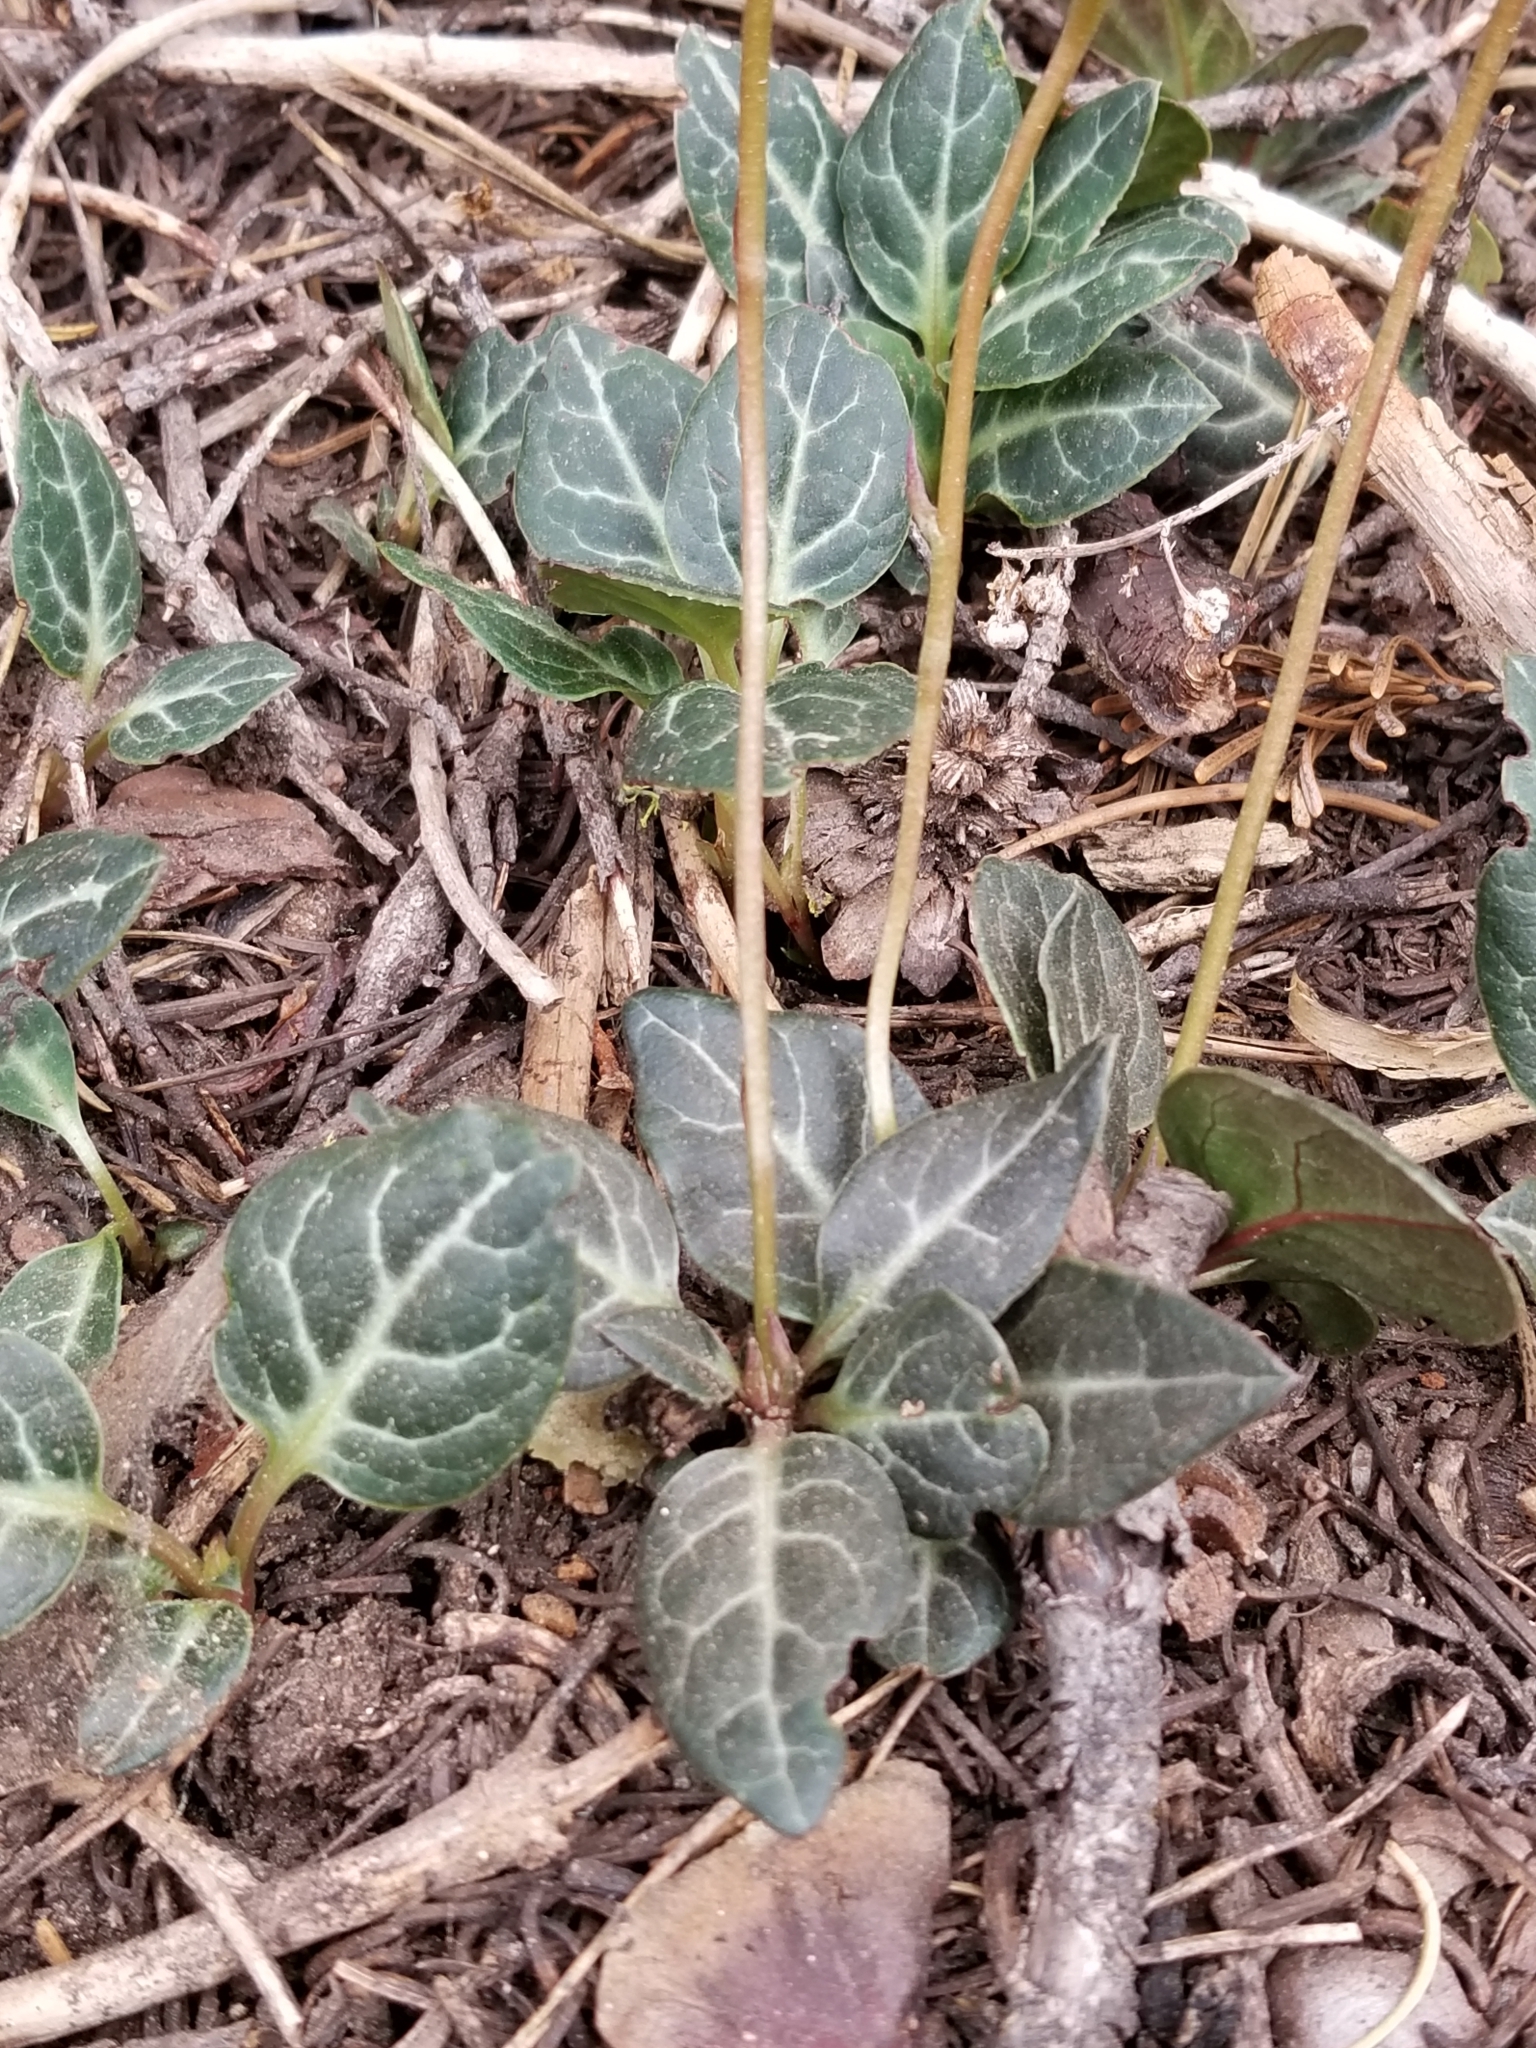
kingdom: Plantae
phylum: Tracheophyta
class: Magnoliopsida
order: Ericales
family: Ericaceae
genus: Pyrola
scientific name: Pyrola picta
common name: White-vein wintergreen
